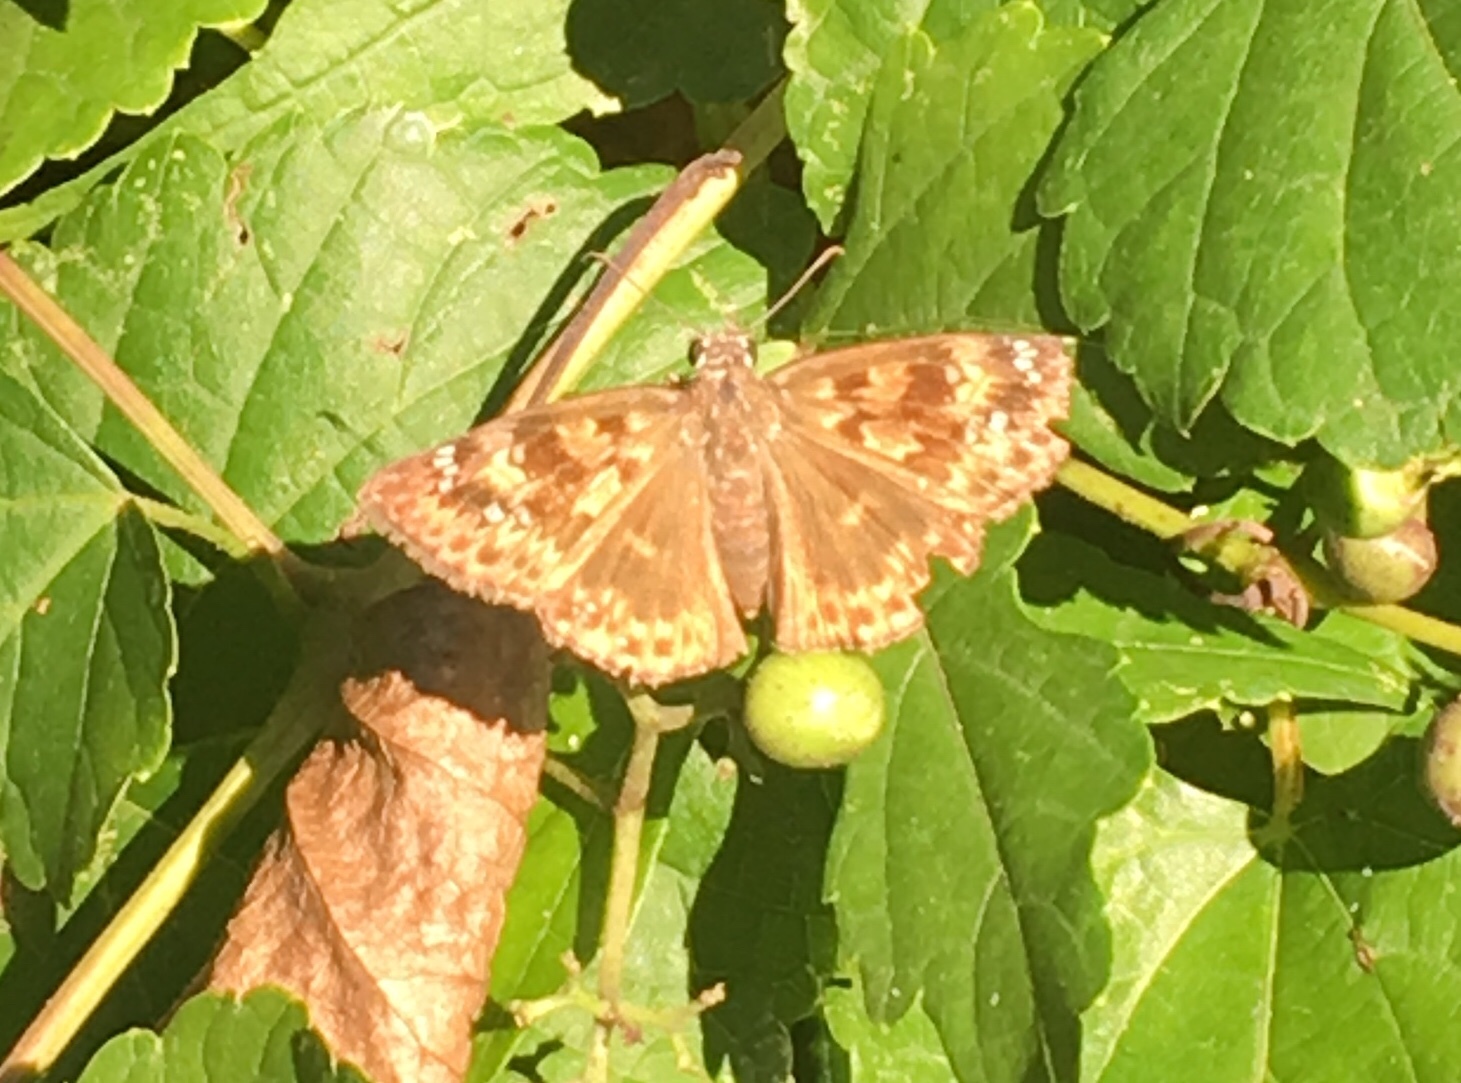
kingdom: Animalia
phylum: Arthropoda
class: Insecta
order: Lepidoptera
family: Hesperiidae
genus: Erynnis
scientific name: Erynnis horatius
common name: Horace's duskywing
